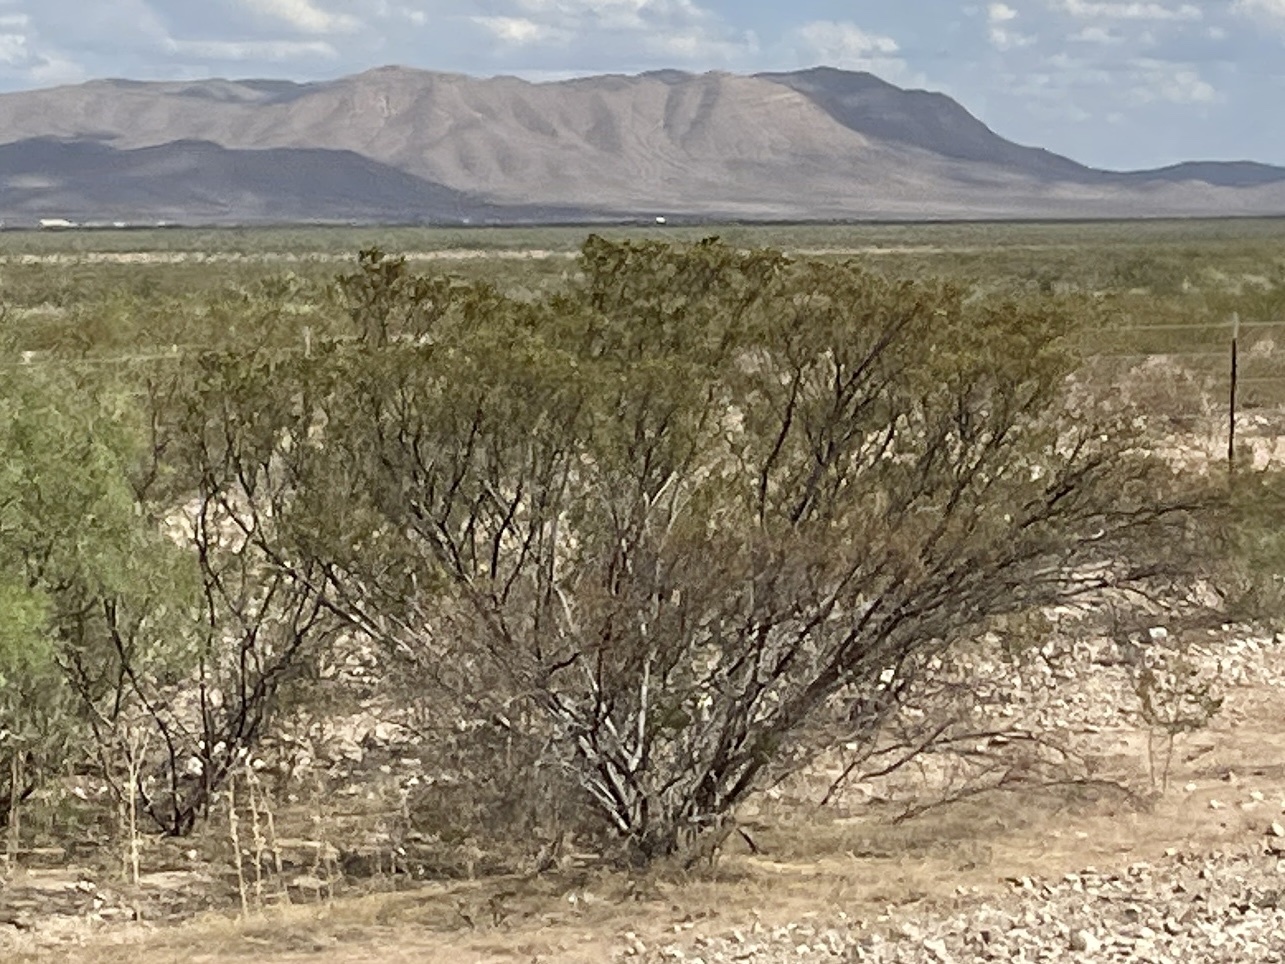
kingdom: Plantae
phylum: Tracheophyta
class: Magnoliopsida
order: Zygophyllales
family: Zygophyllaceae
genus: Larrea
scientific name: Larrea tridentata
